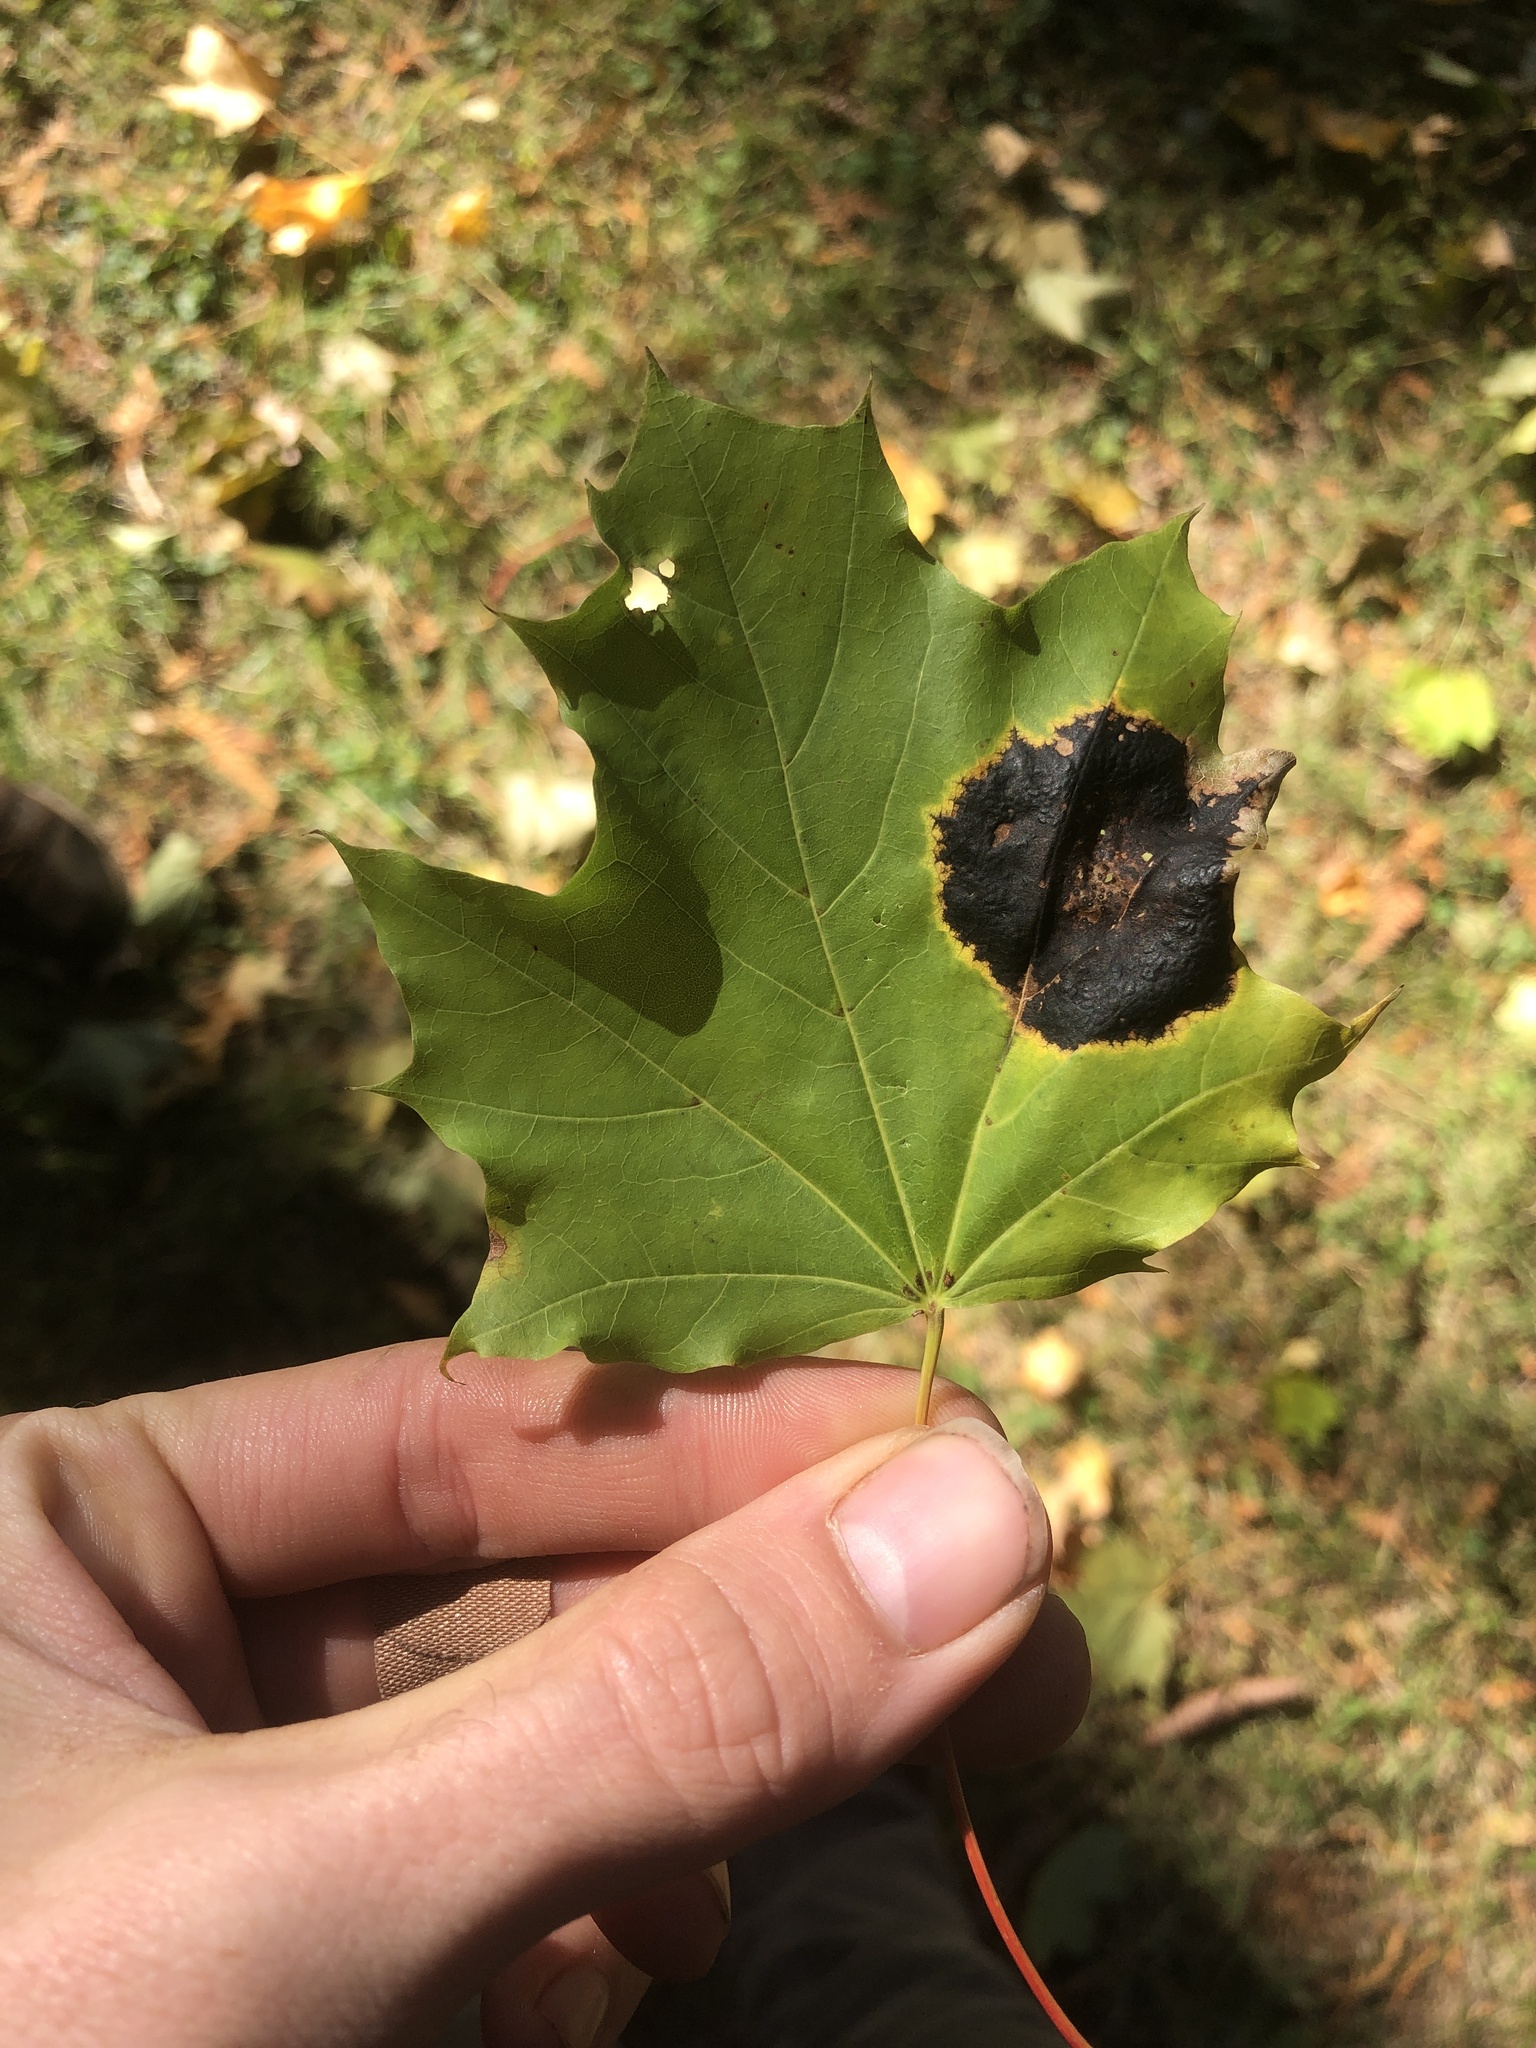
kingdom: Fungi
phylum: Ascomycota
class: Leotiomycetes
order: Rhytismatales
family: Rhytismataceae
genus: Rhytisma
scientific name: Rhytisma acerinum
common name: European tar spot
